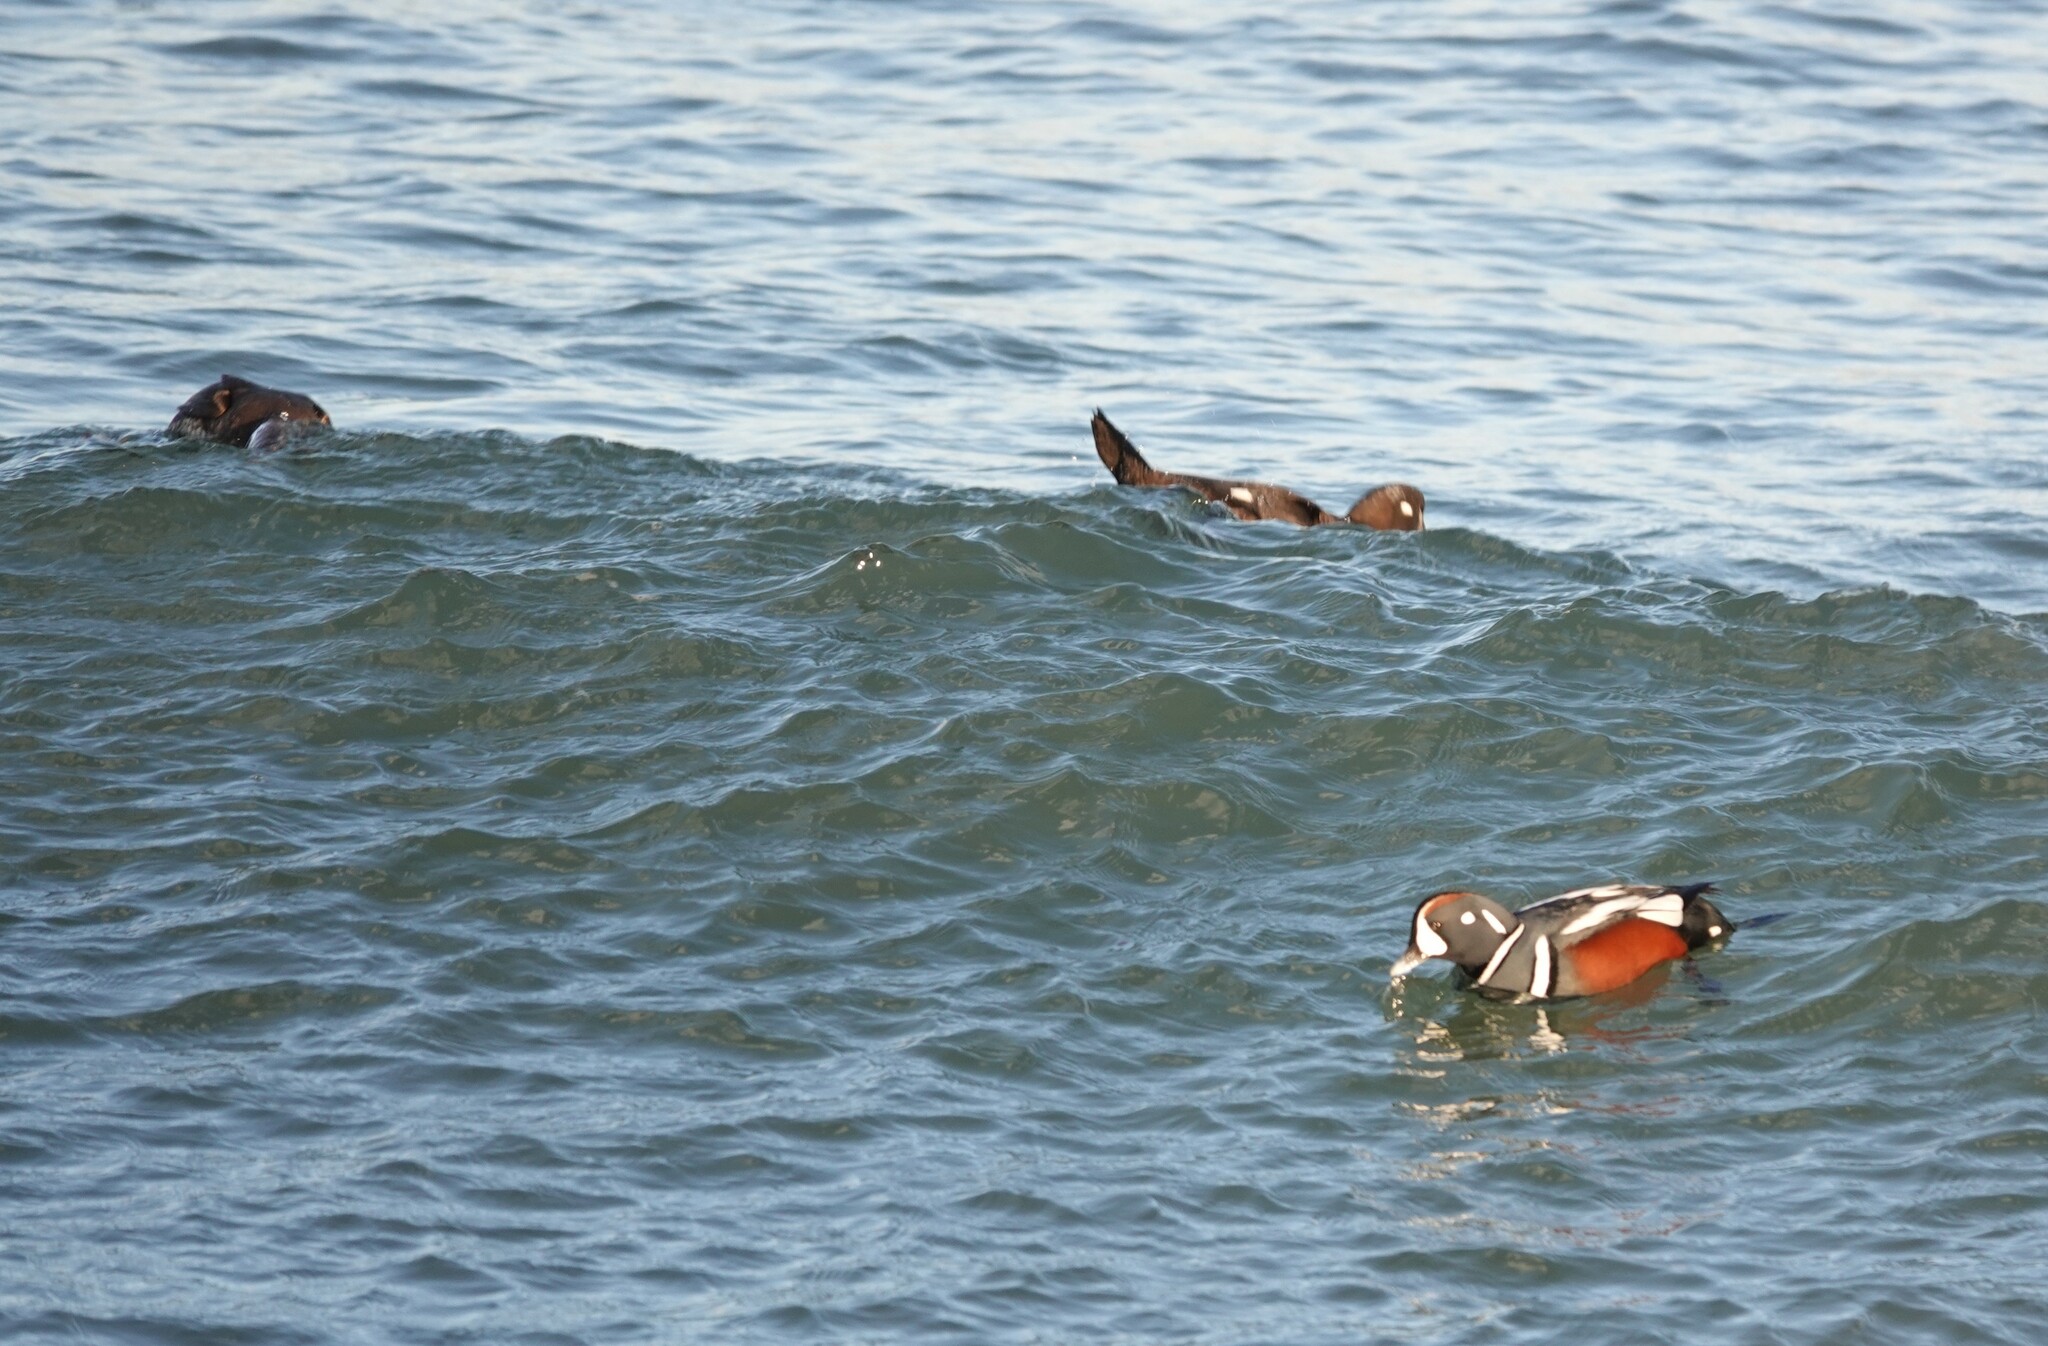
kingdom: Animalia
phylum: Chordata
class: Aves
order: Anseriformes
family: Anatidae
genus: Histrionicus
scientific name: Histrionicus histrionicus
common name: Harlequin duck
